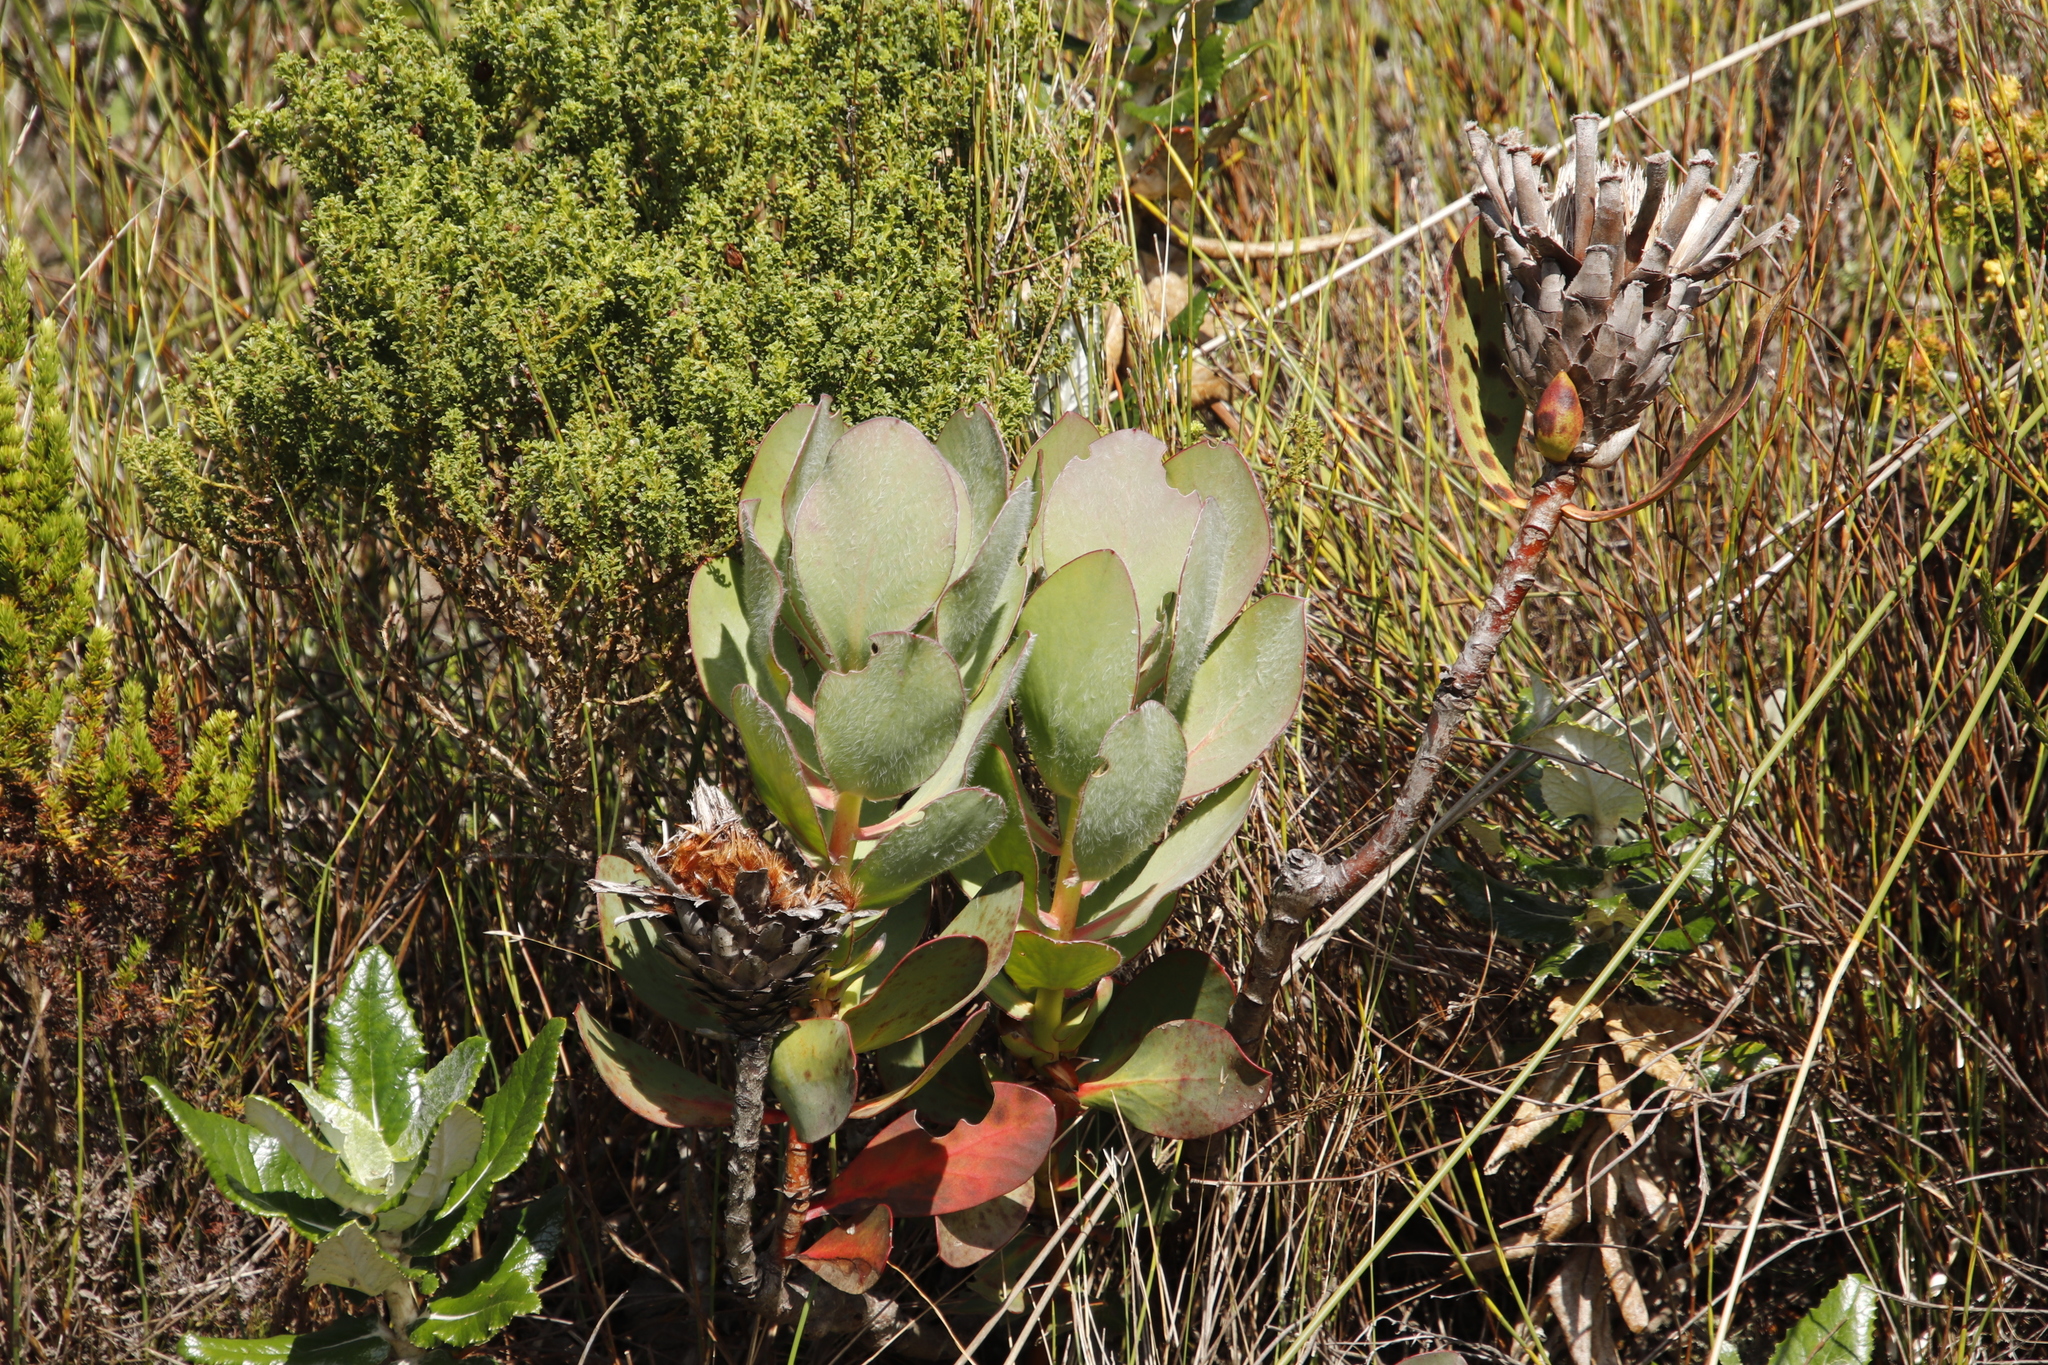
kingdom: Plantae
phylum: Tracheophyta
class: Magnoliopsida
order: Proteales
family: Proteaceae
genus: Protea
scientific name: Protea speciosa
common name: Brown-beard sugarbush
